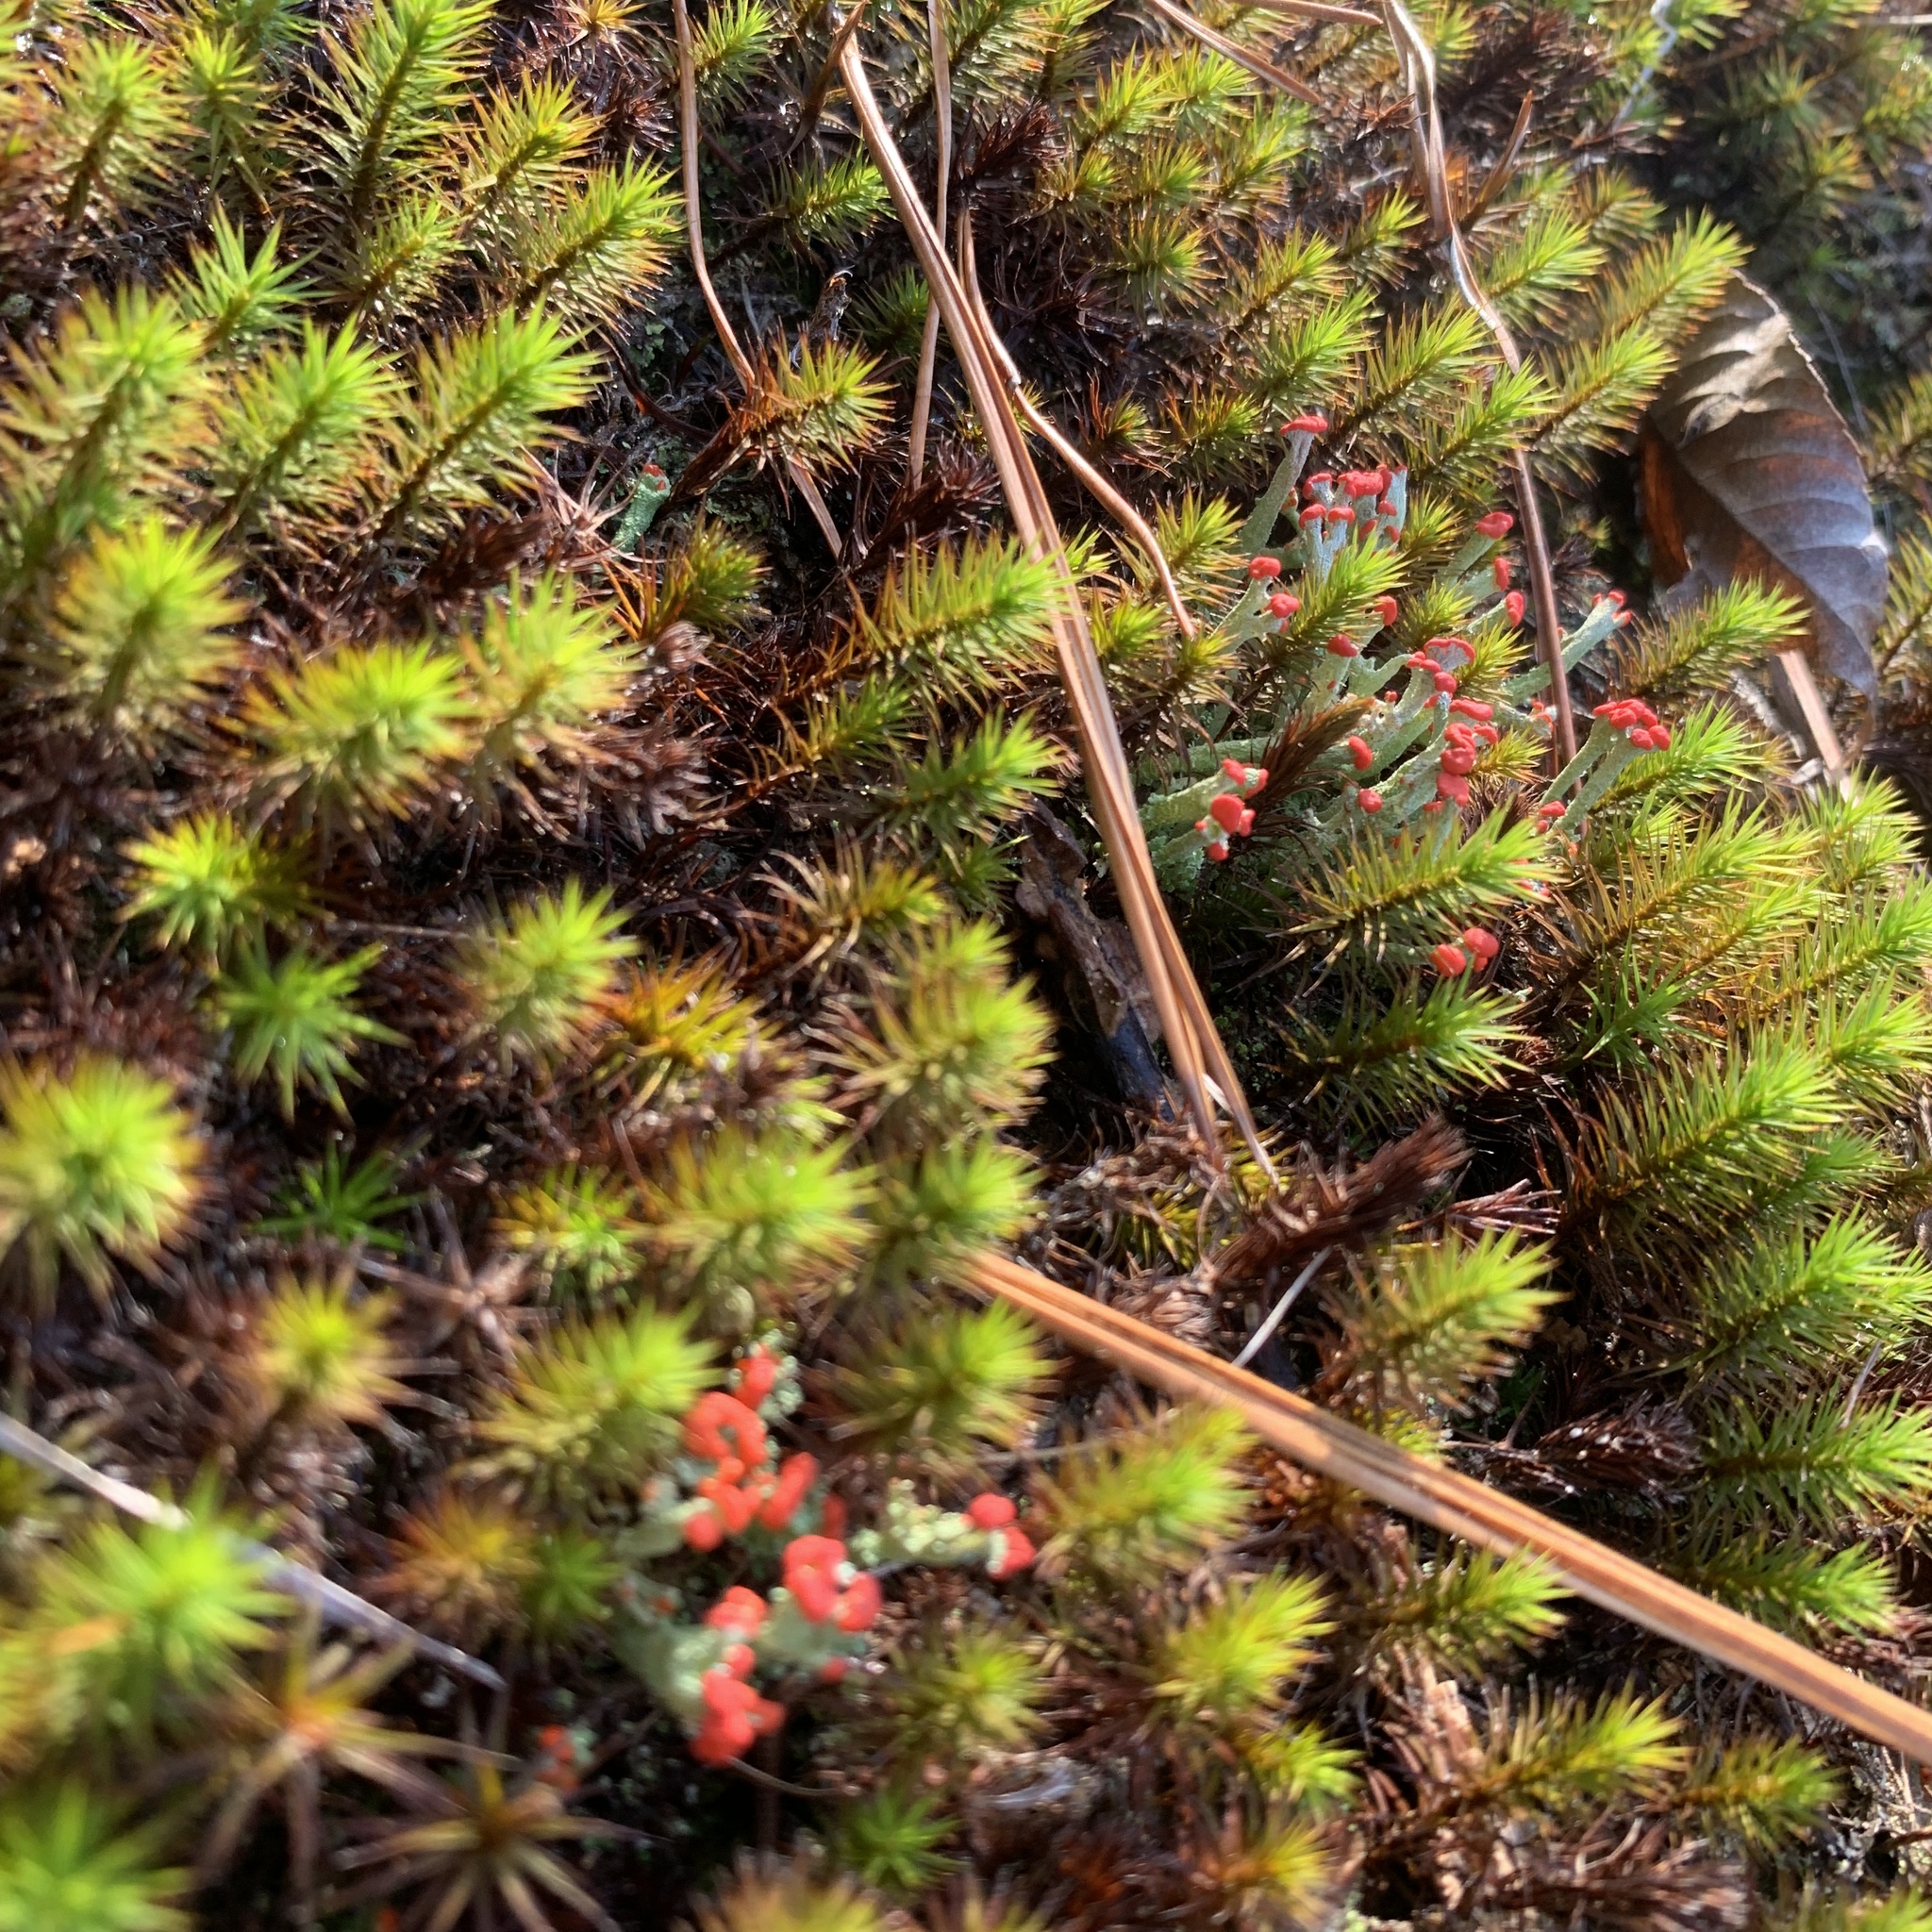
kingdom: Fungi
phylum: Ascomycota
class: Lecanoromycetes
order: Lecanorales
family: Cladoniaceae
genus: Cladonia
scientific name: Cladonia cristatella
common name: British soldier lichen
